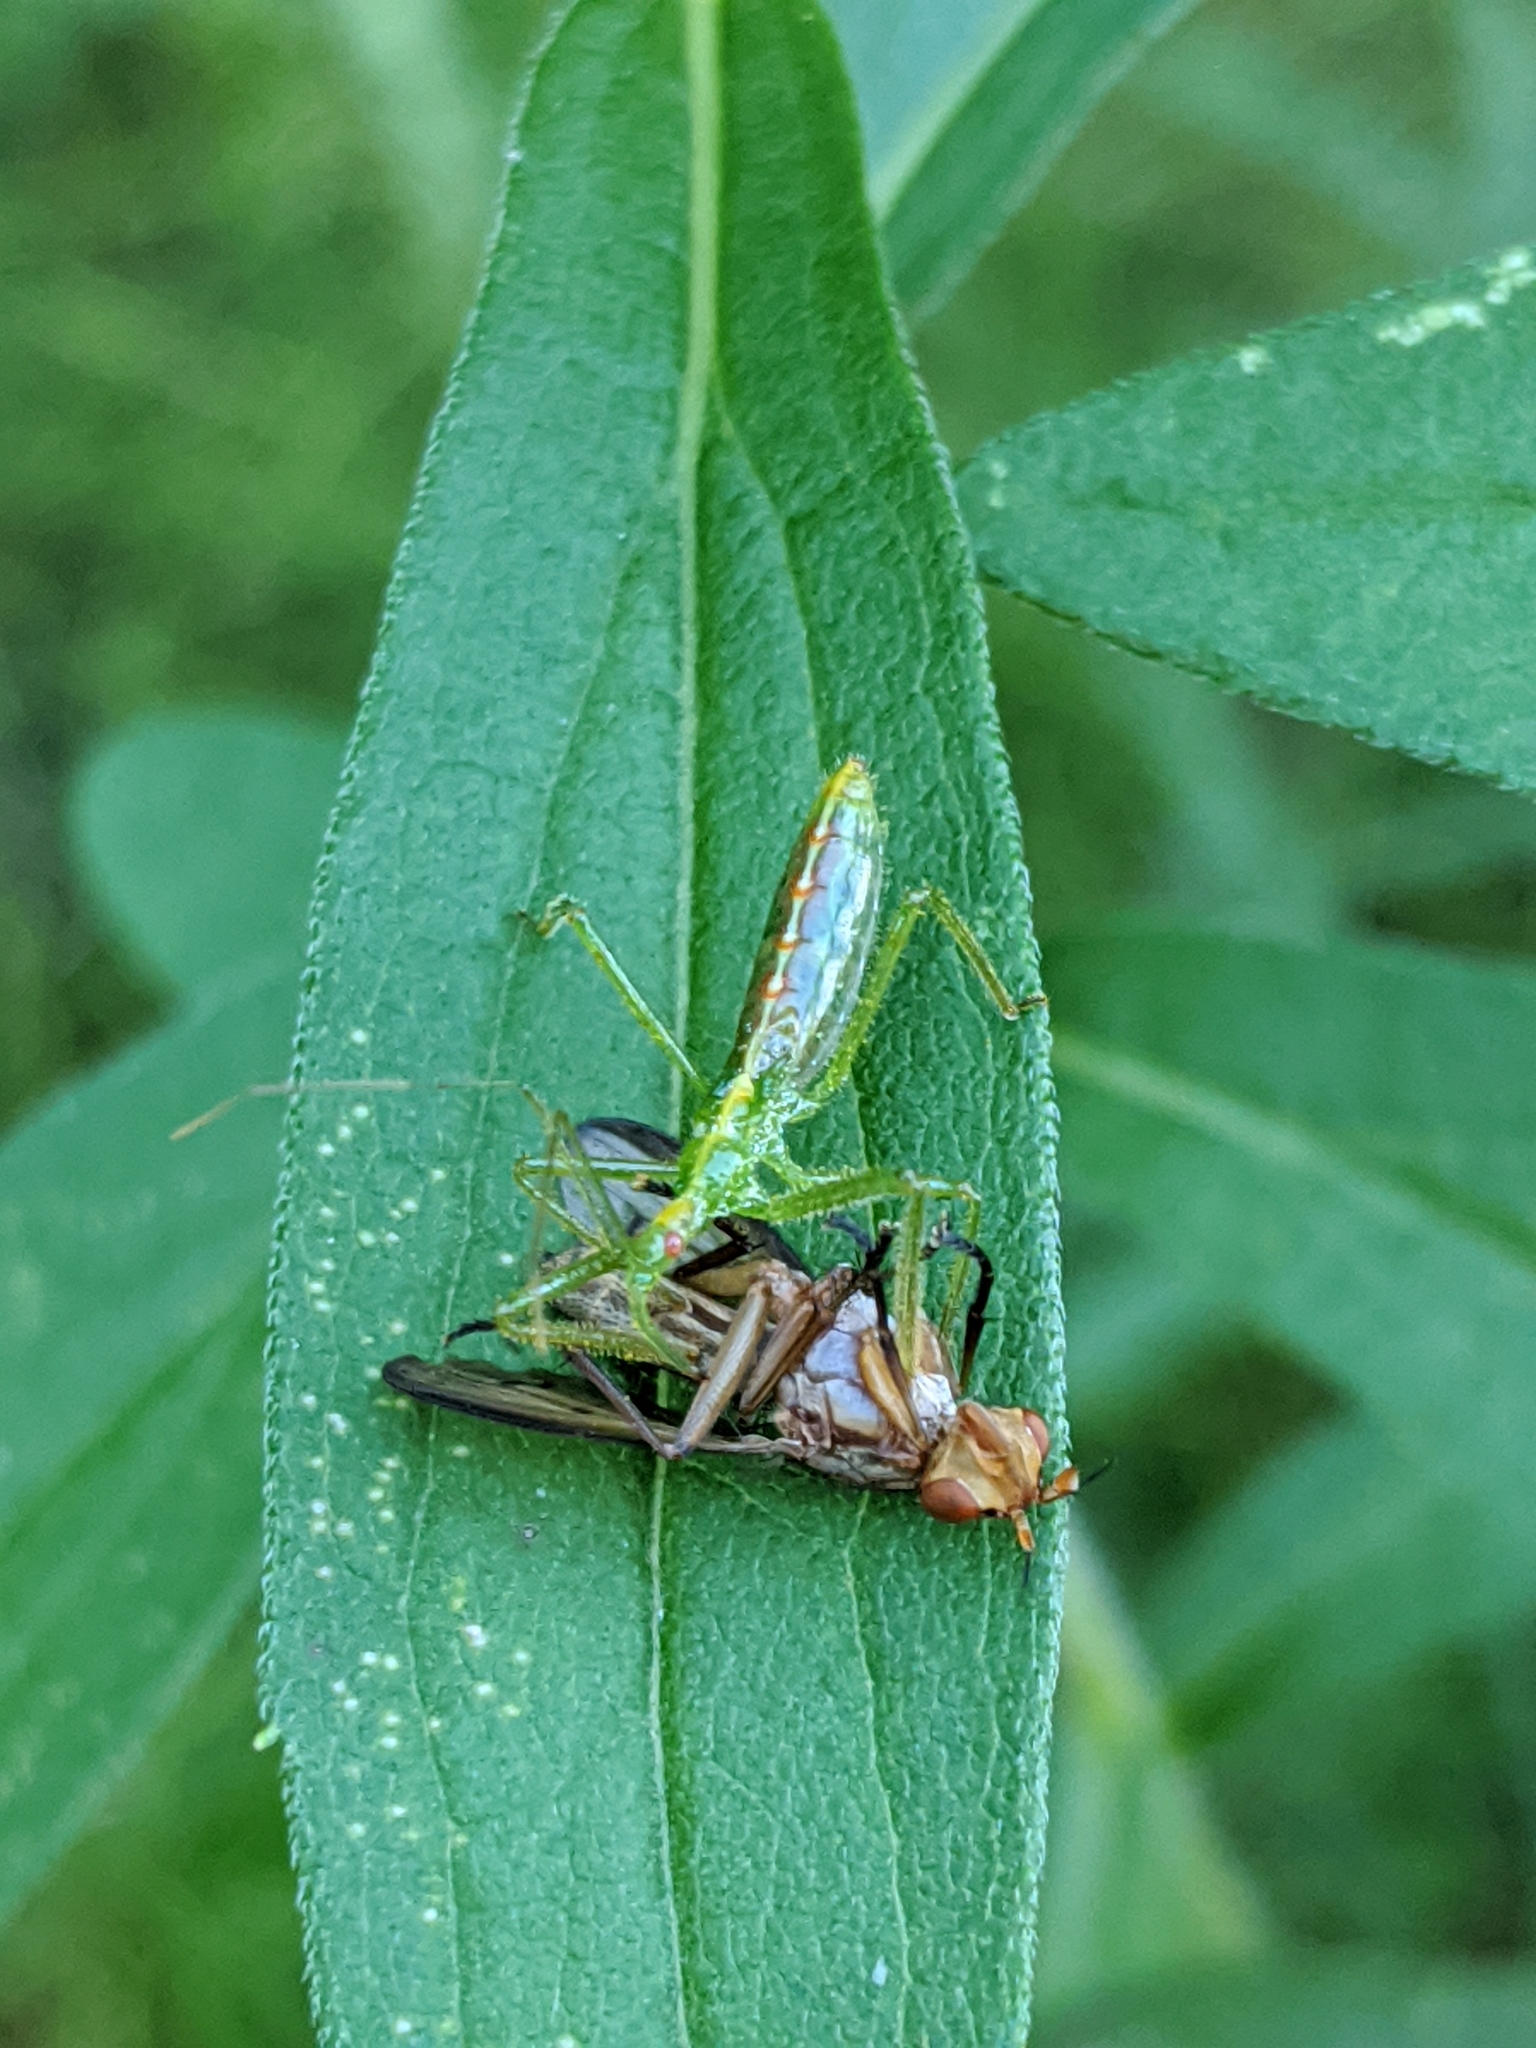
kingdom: Animalia
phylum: Arthropoda
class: Insecta
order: Hemiptera
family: Reduviidae
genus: Zelus
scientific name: Zelus luridus
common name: Pale green assassin bug
